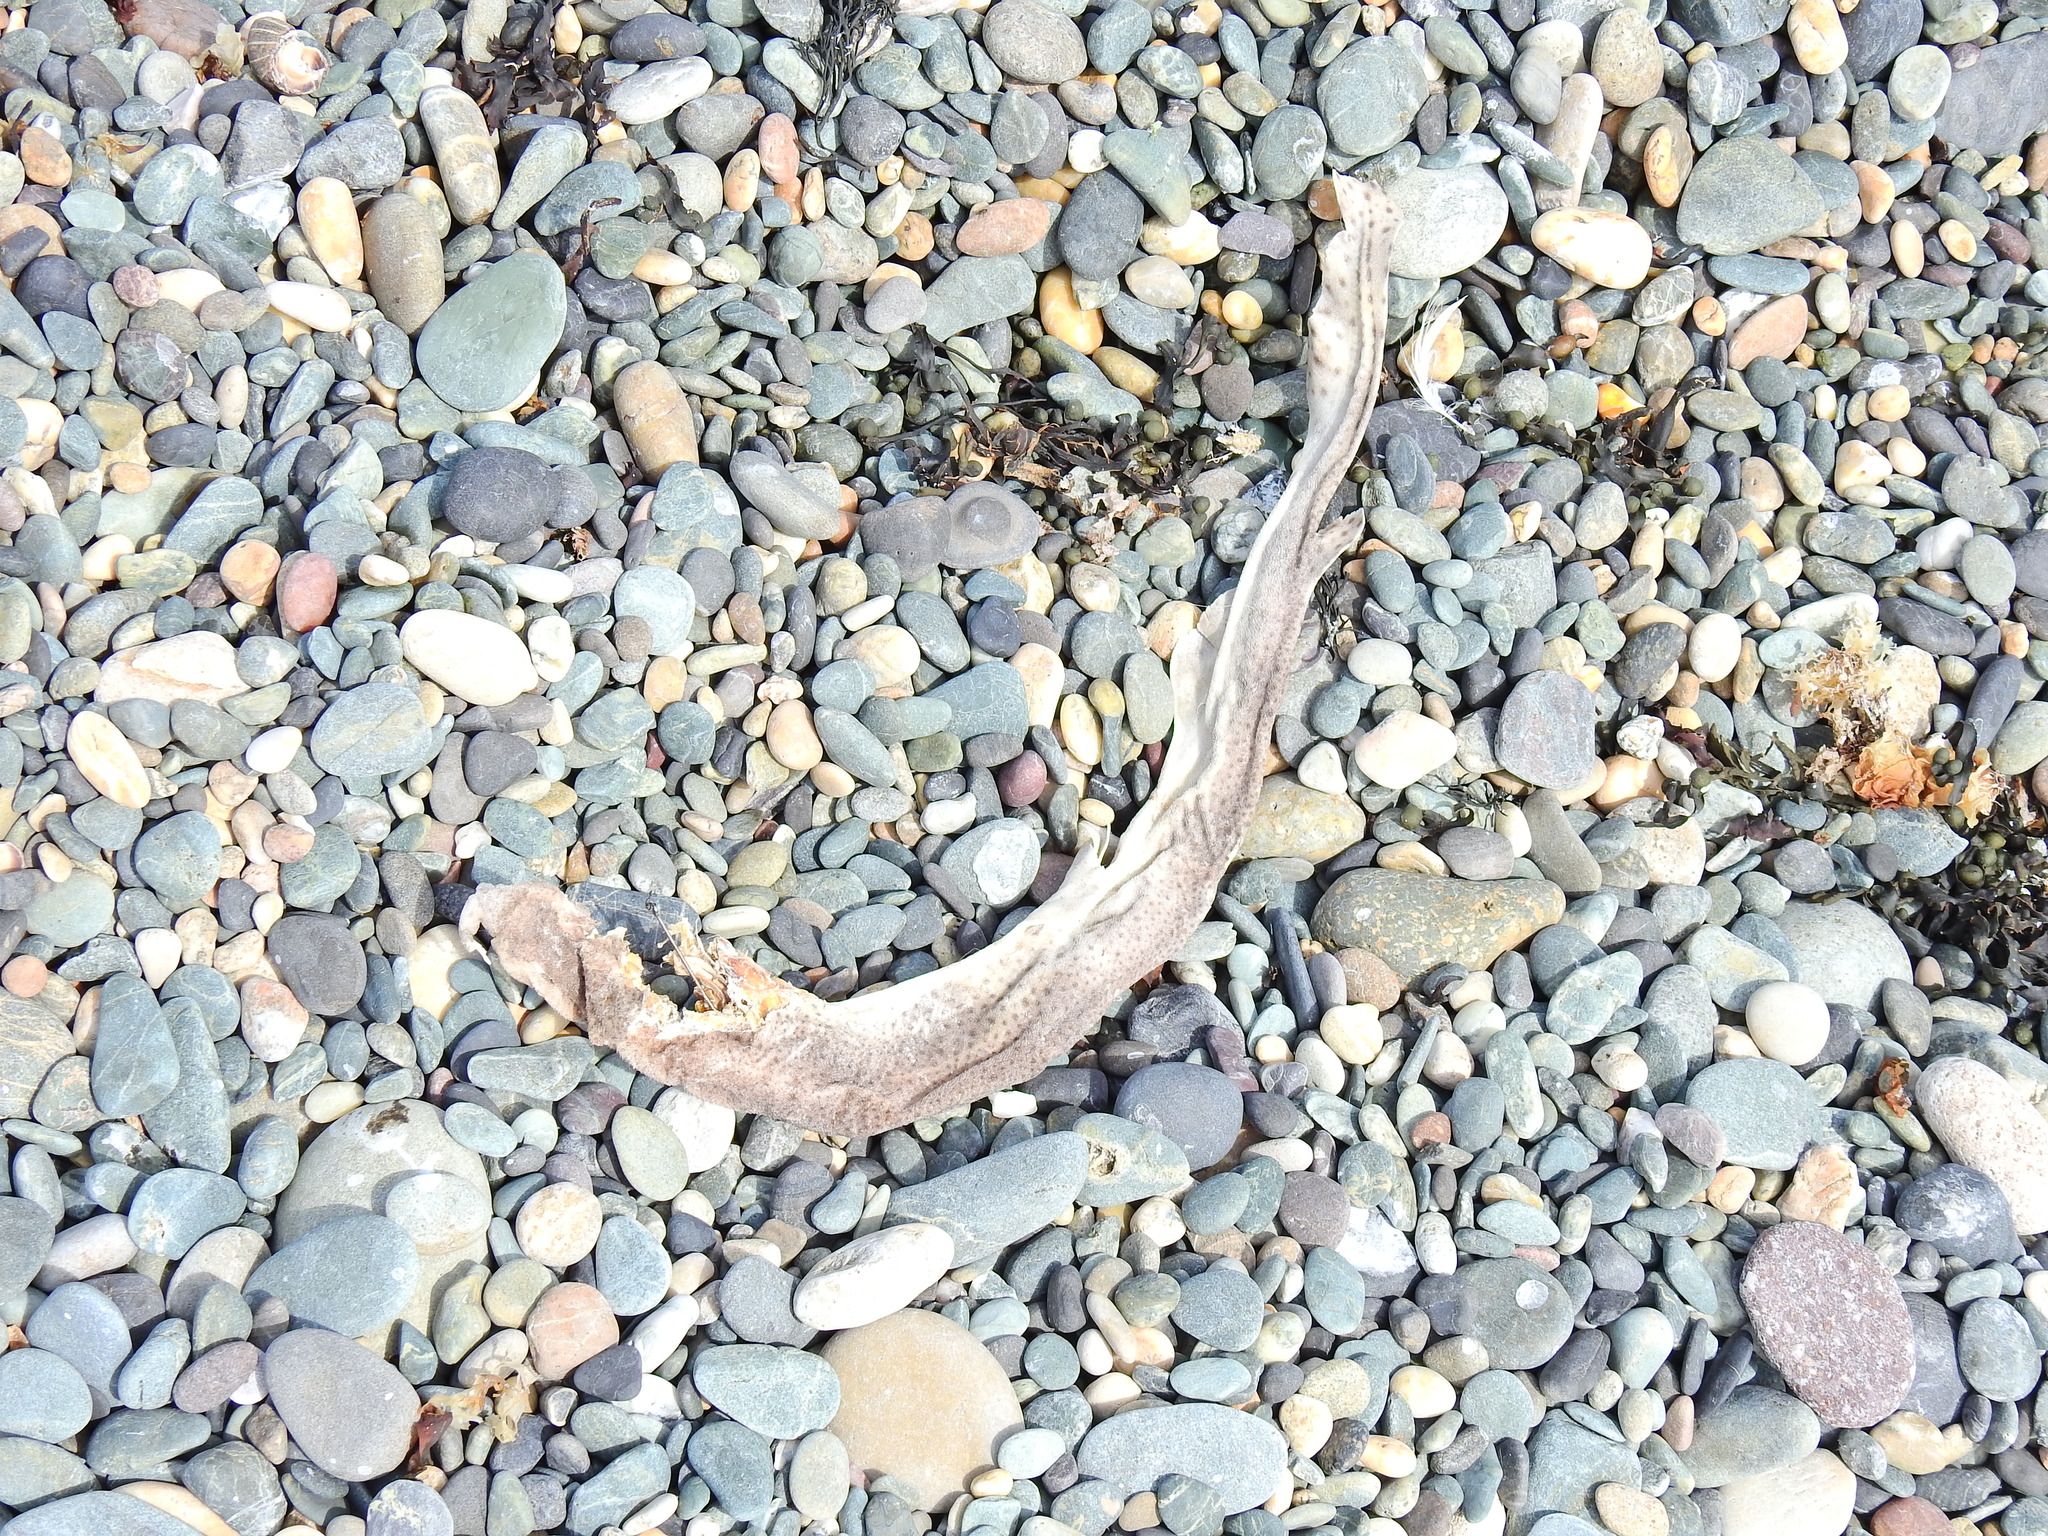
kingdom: Animalia
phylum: Chordata
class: Elasmobranchii
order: Carcharhiniformes
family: Scyliorhinidae
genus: Scyliorhinus
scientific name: Scyliorhinus canicula
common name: Lesser spotted dogfish
